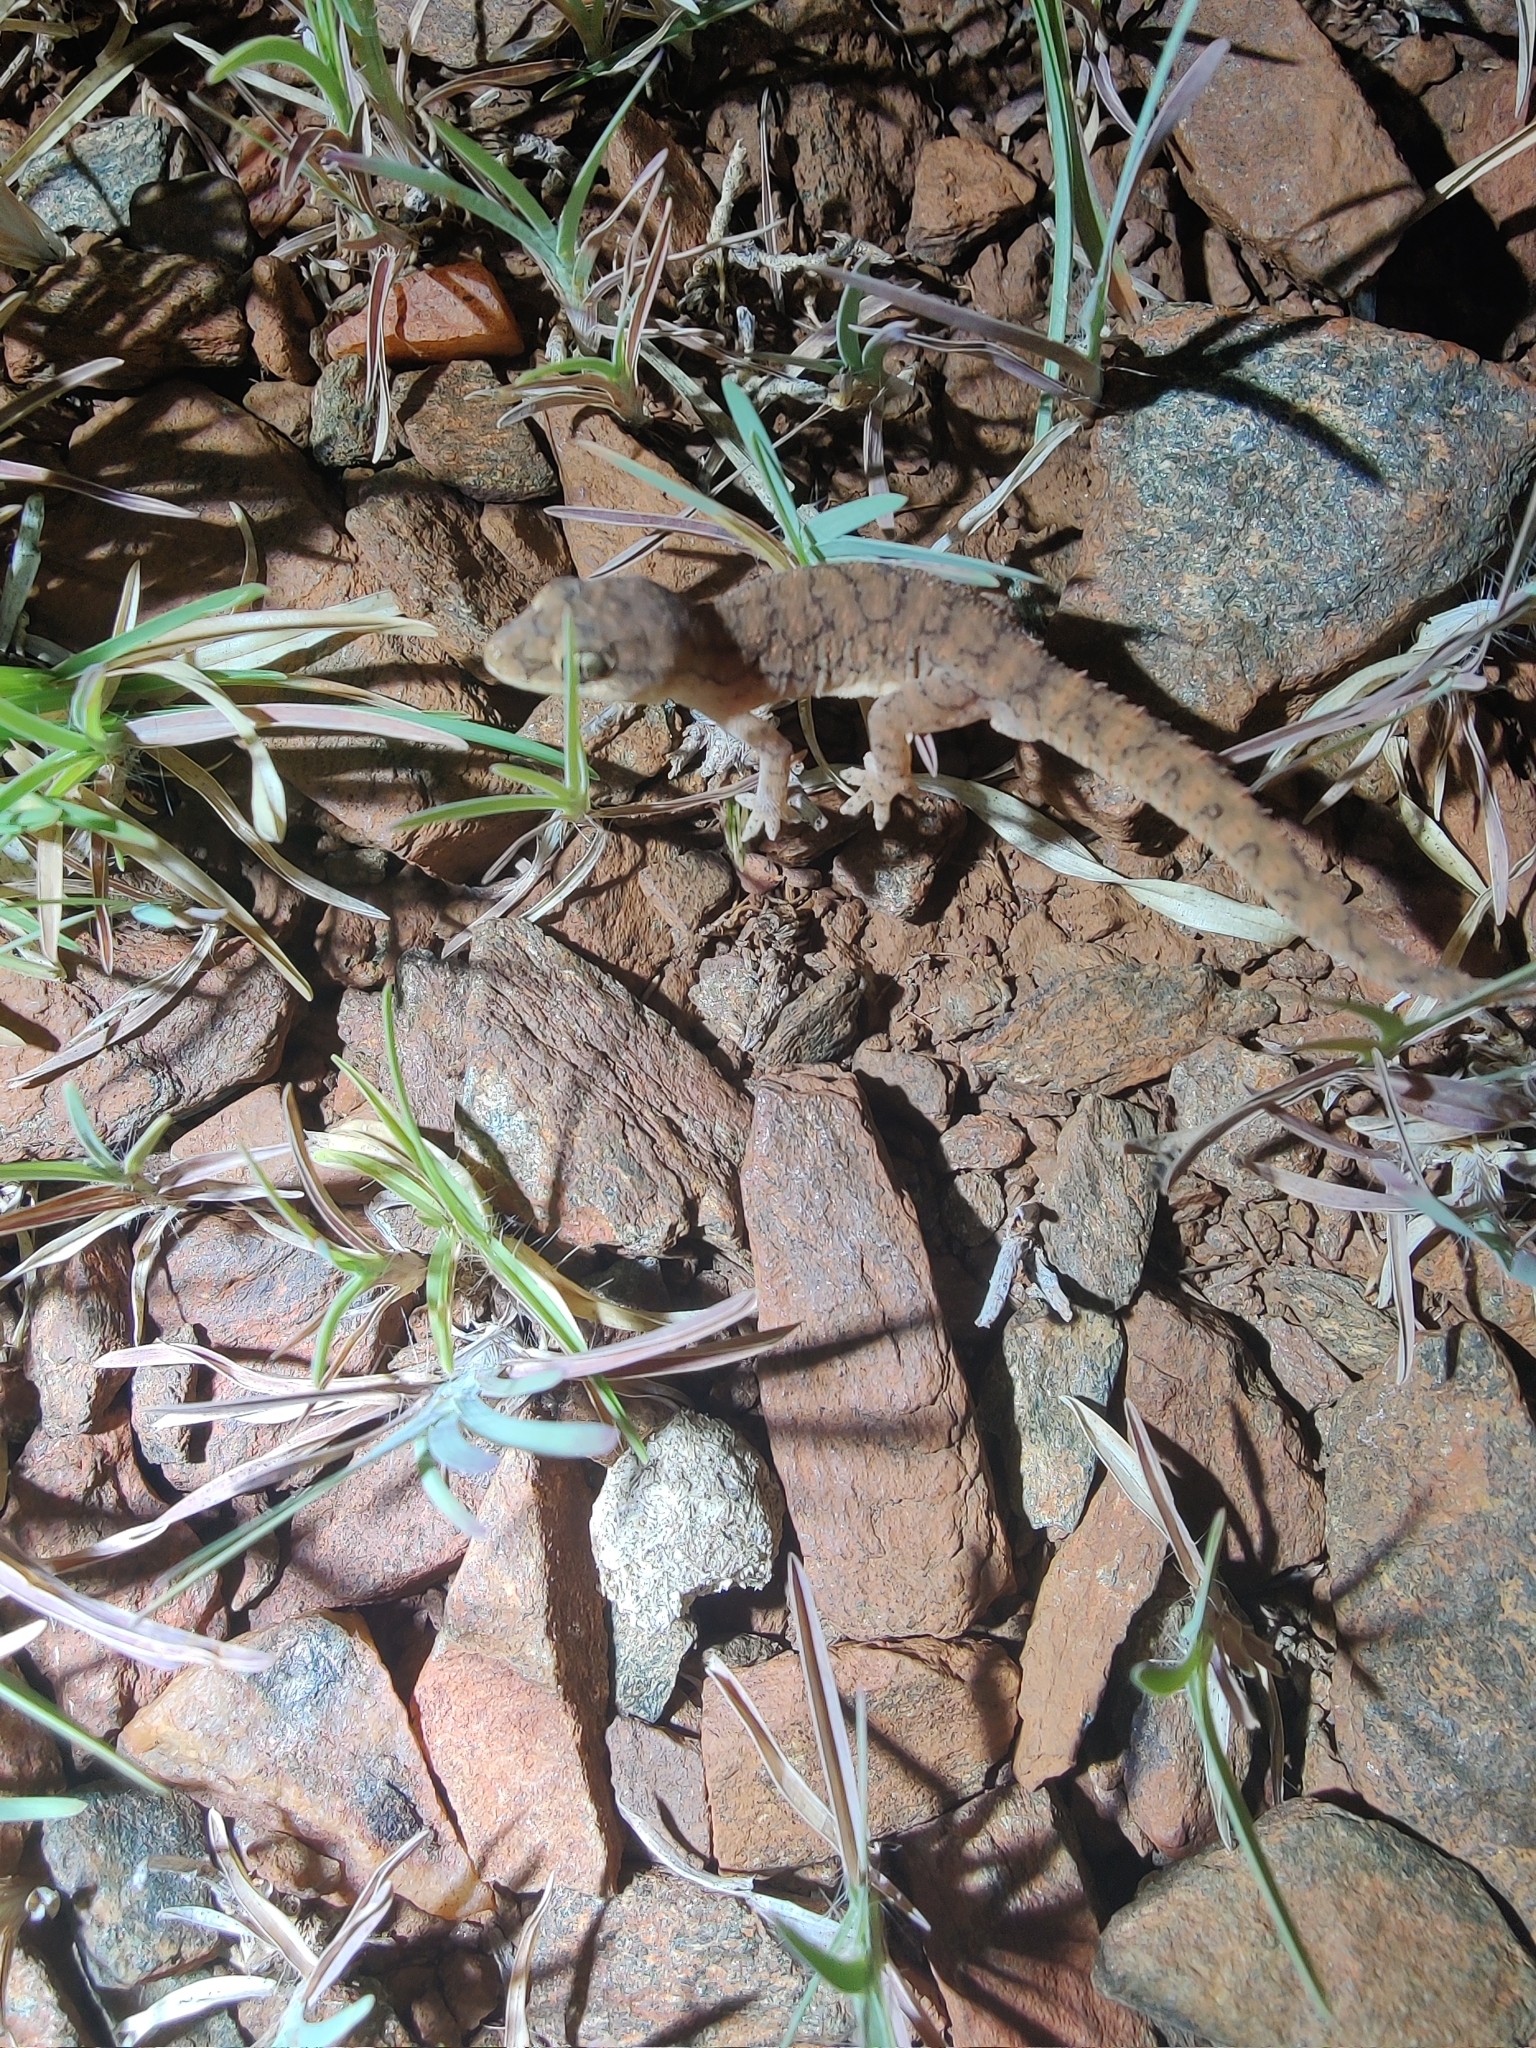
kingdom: Animalia
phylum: Chordata
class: Squamata
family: Gekkonidae
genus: Hemidactylus
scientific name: Hemidactylus reticulatus
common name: Reticulate leaf-toed gecko
